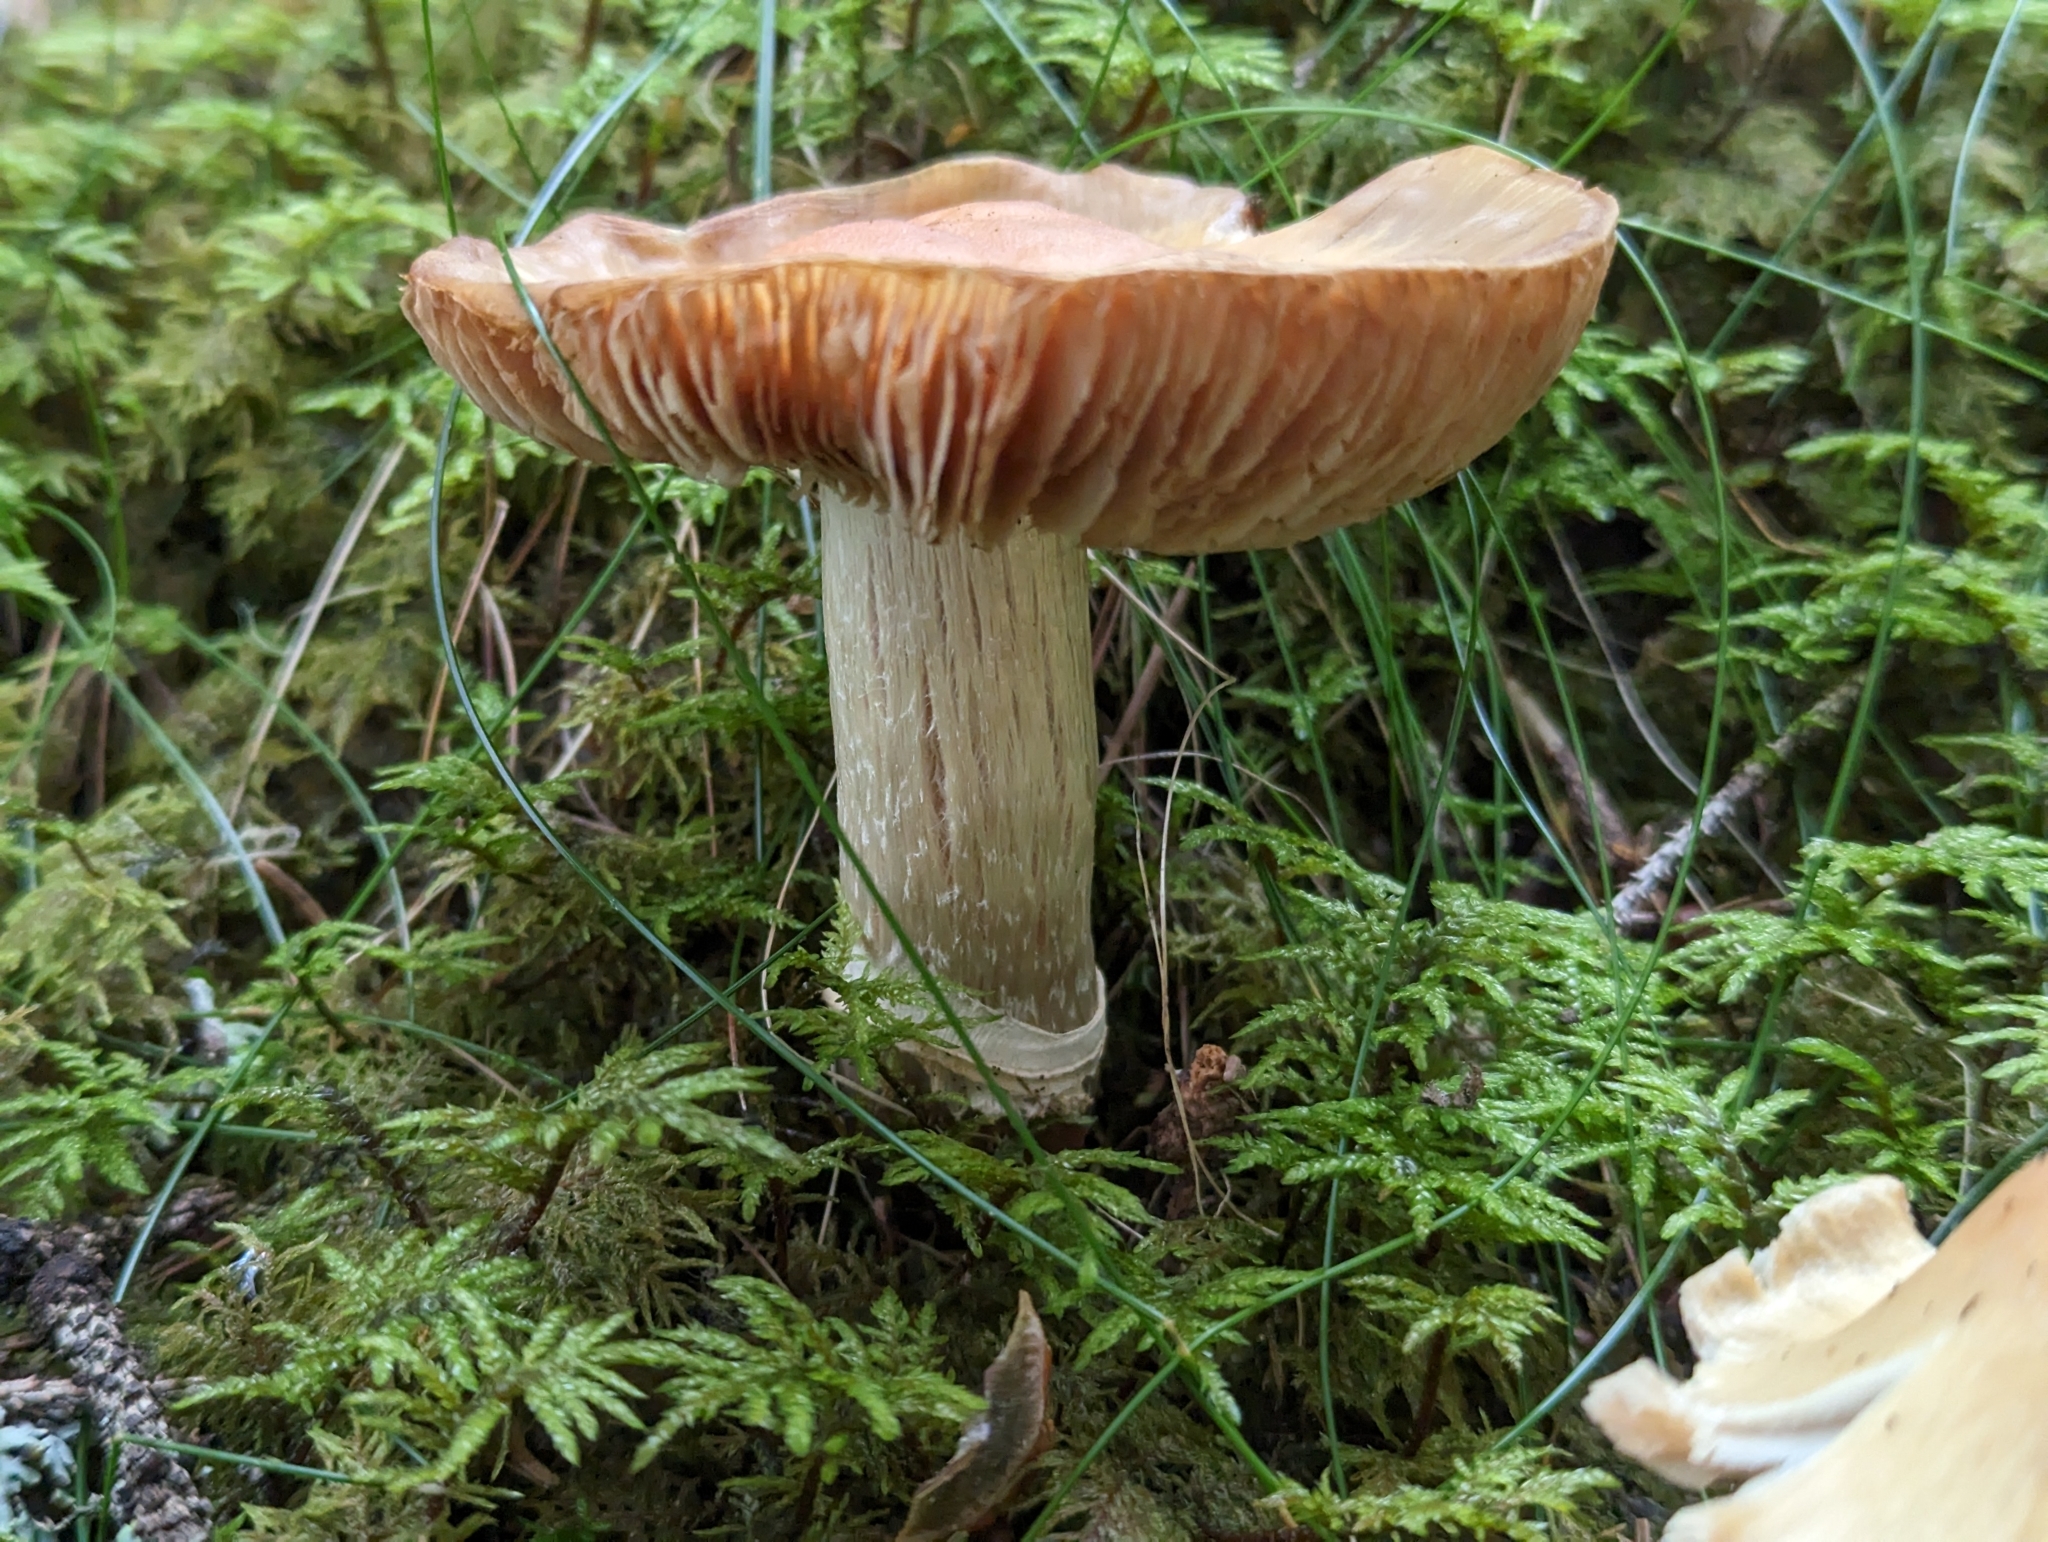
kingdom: Fungi
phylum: Basidiomycota
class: Agaricomycetes
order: Agaricales
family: Cortinariaceae
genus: Cortinarius
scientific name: Cortinarius caperatus
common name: The gypsy
